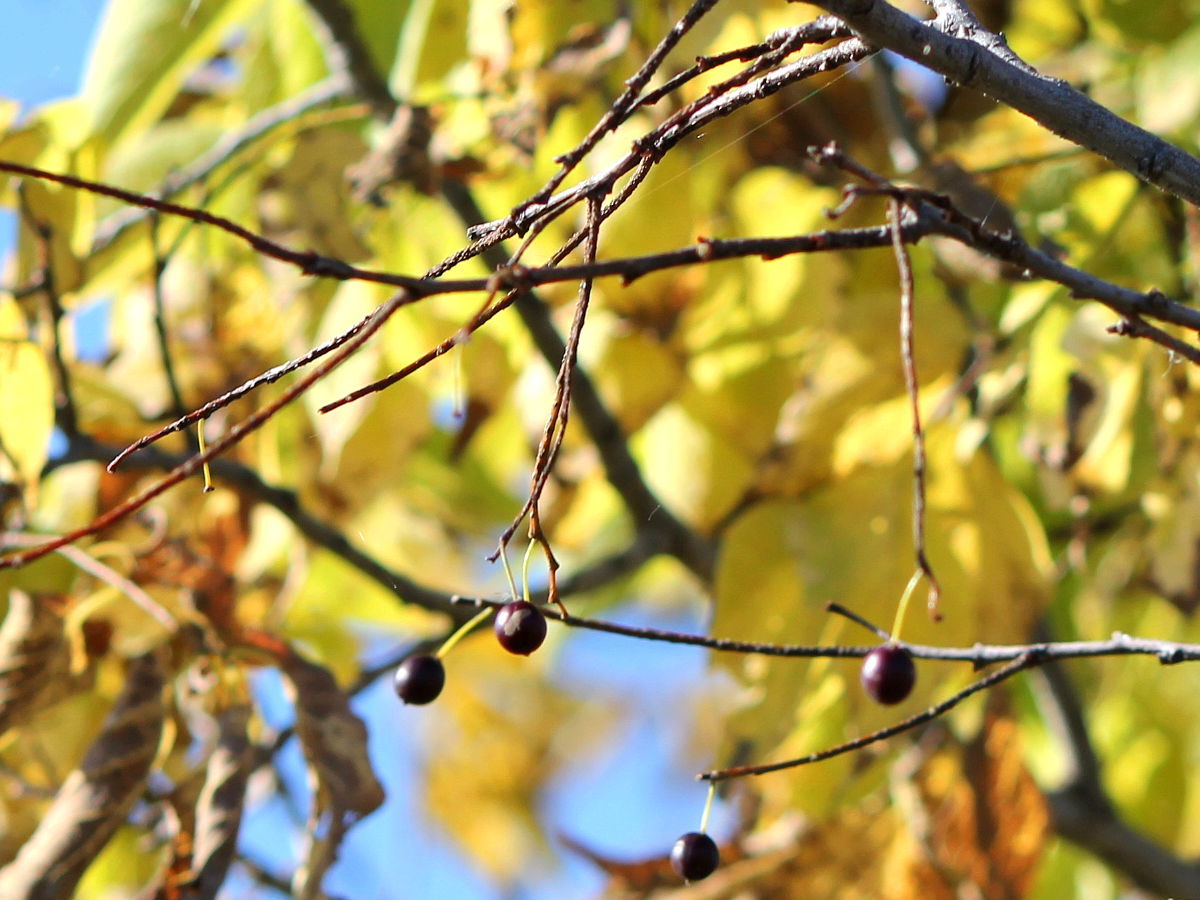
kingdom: Plantae
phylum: Tracheophyta
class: Magnoliopsida
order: Rosales
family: Cannabaceae
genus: Celtis
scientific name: Celtis occidentalis
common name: Common hackberry
